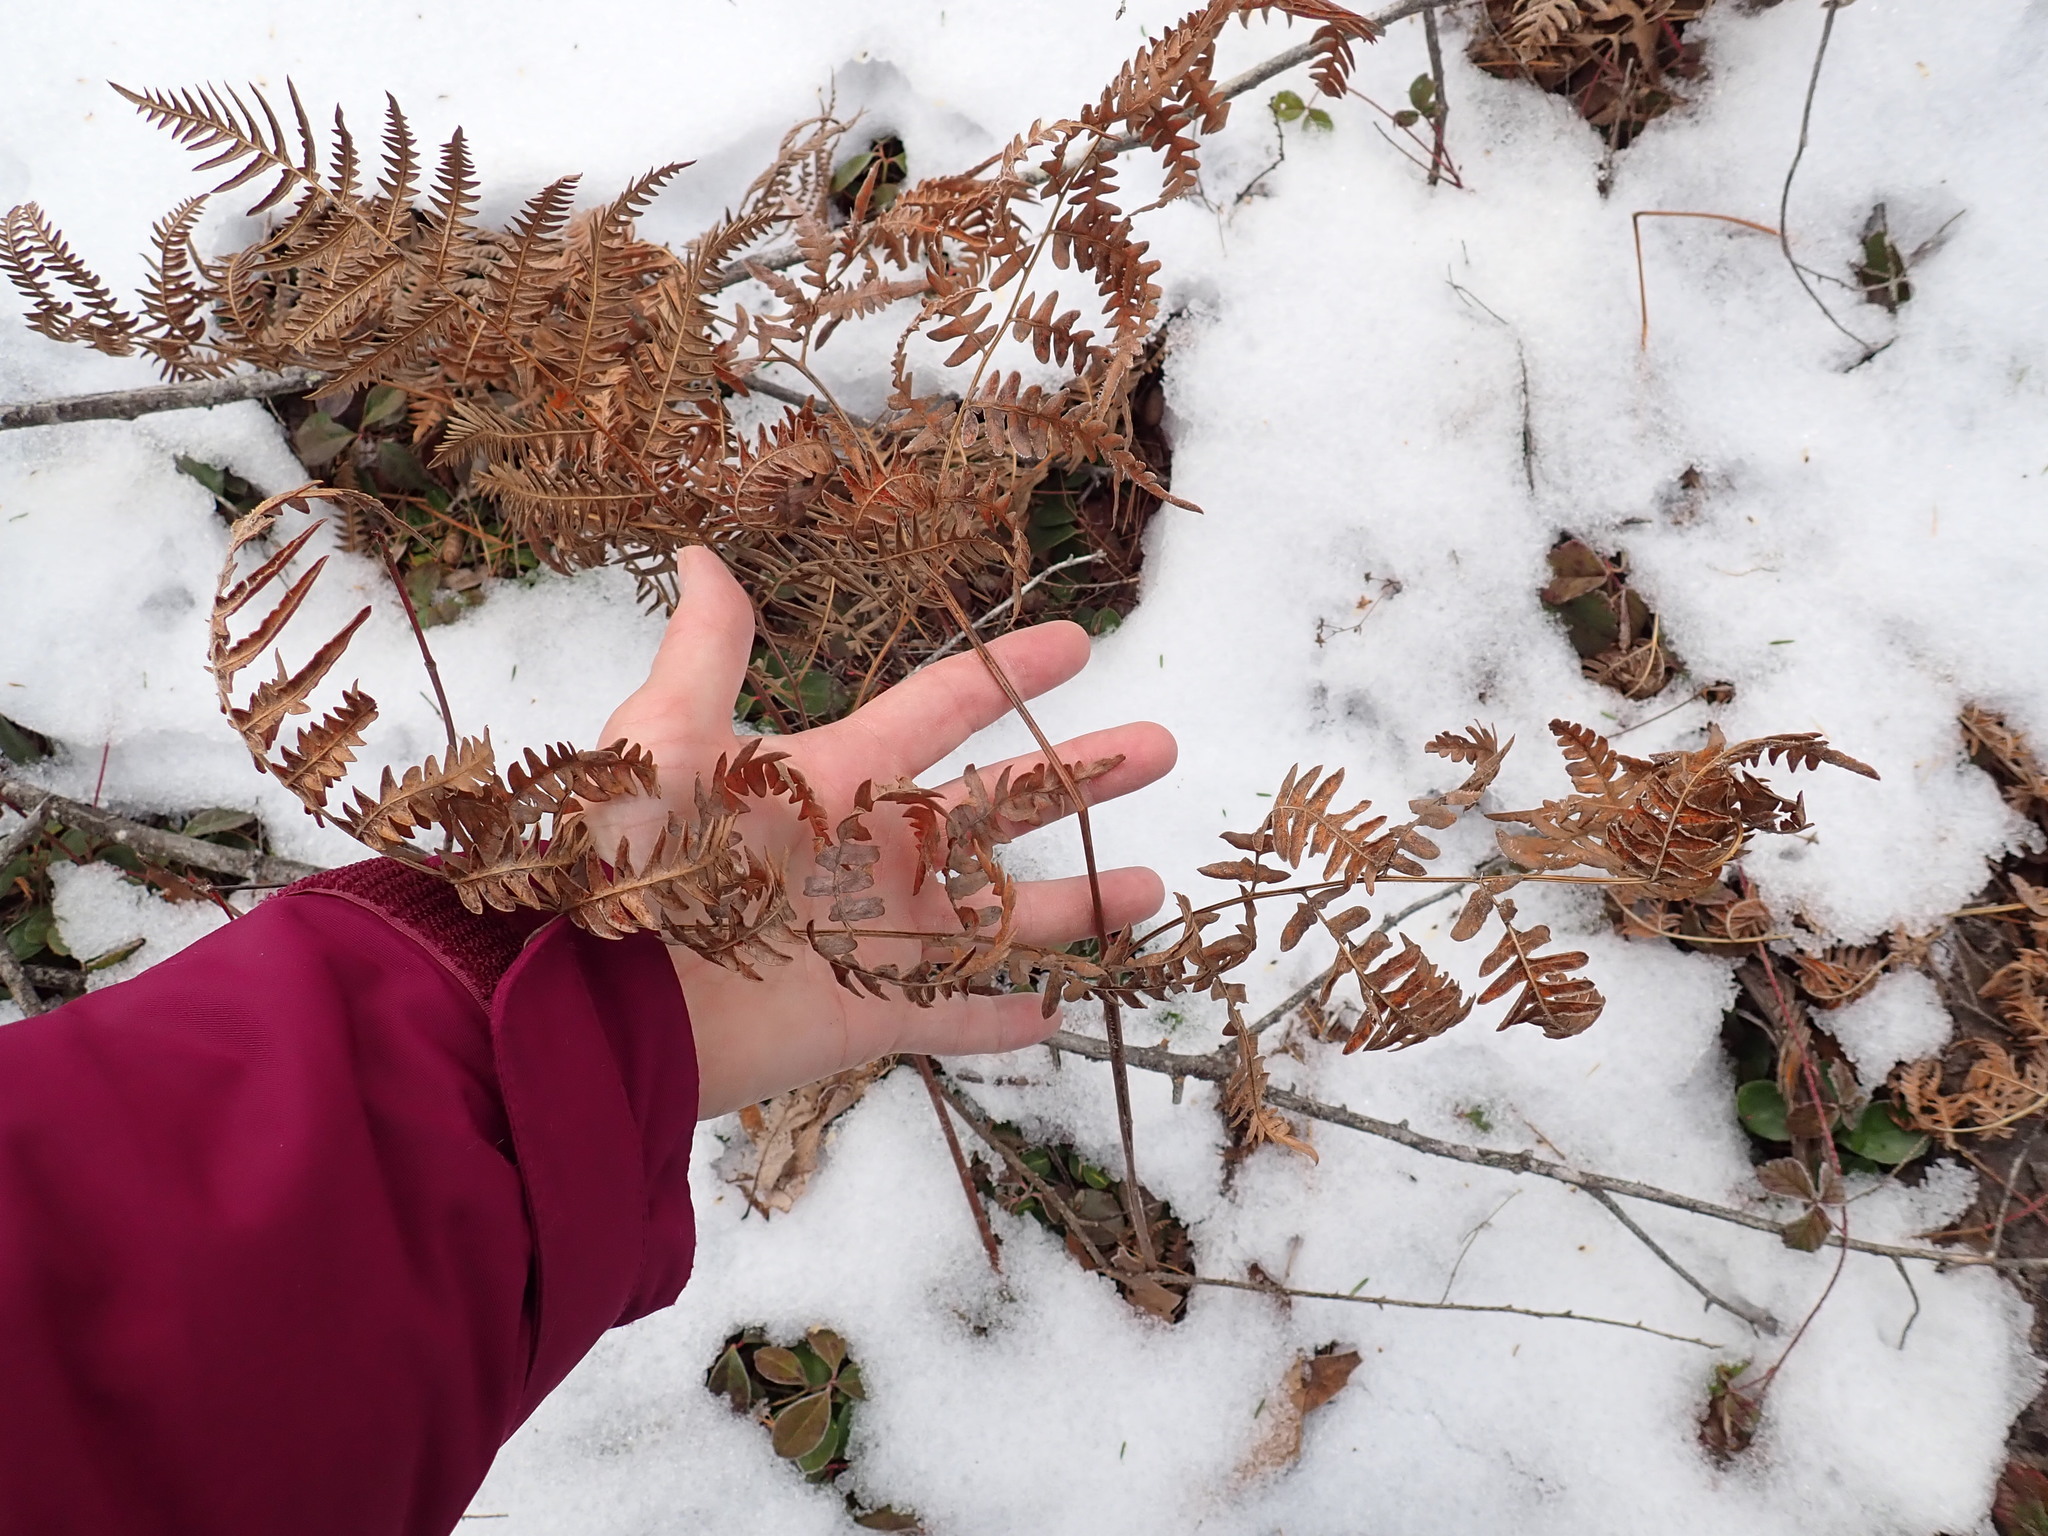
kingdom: Plantae
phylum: Tracheophyta
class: Polypodiopsida
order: Polypodiales
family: Dennstaedtiaceae
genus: Pteridium
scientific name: Pteridium aquilinum
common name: Bracken
